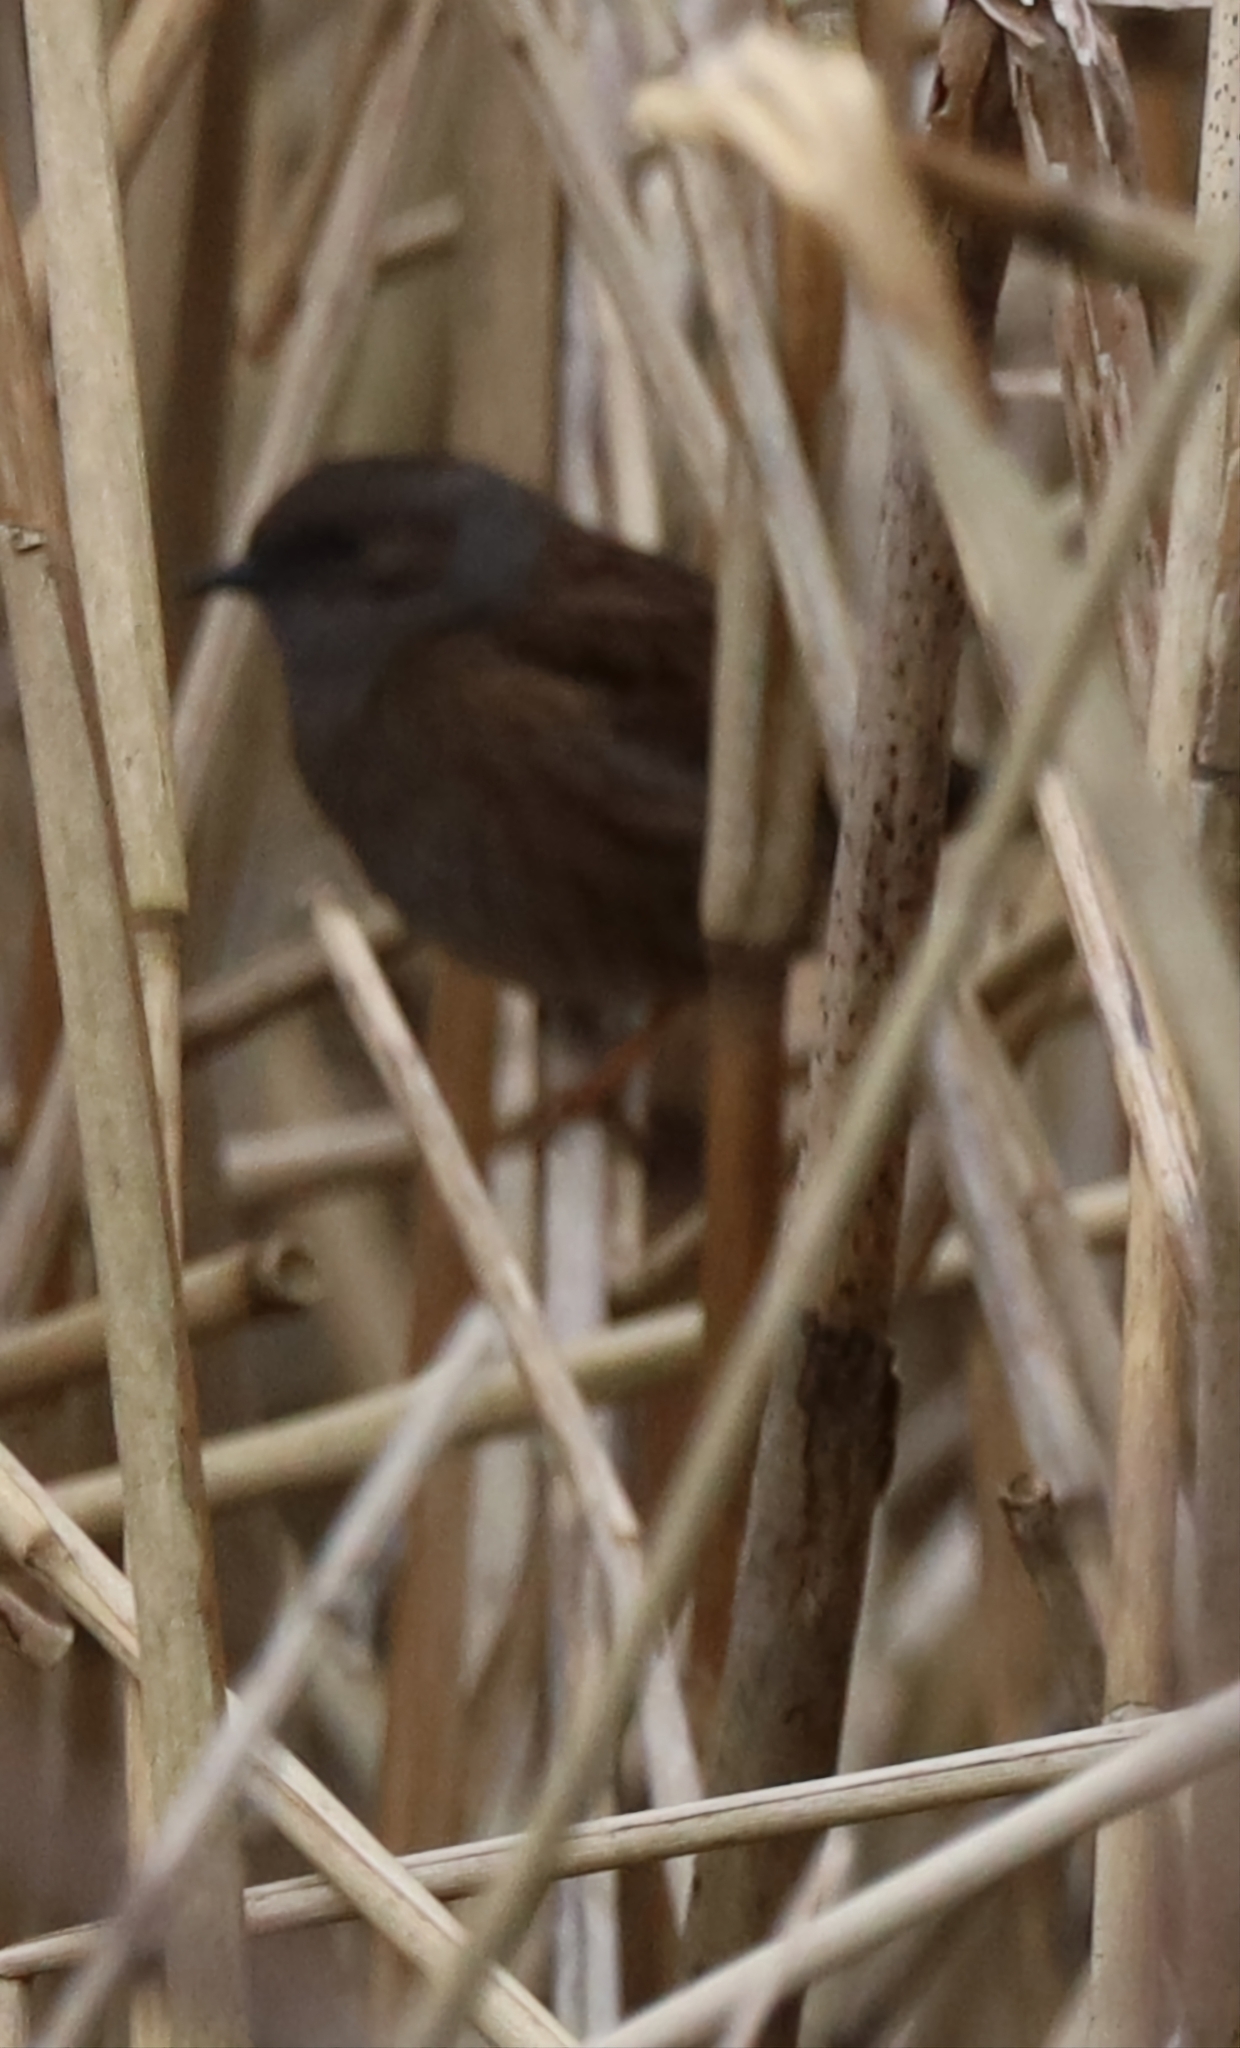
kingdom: Animalia
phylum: Chordata
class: Aves
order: Passeriformes
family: Prunellidae
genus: Prunella
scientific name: Prunella modularis
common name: Dunnock
